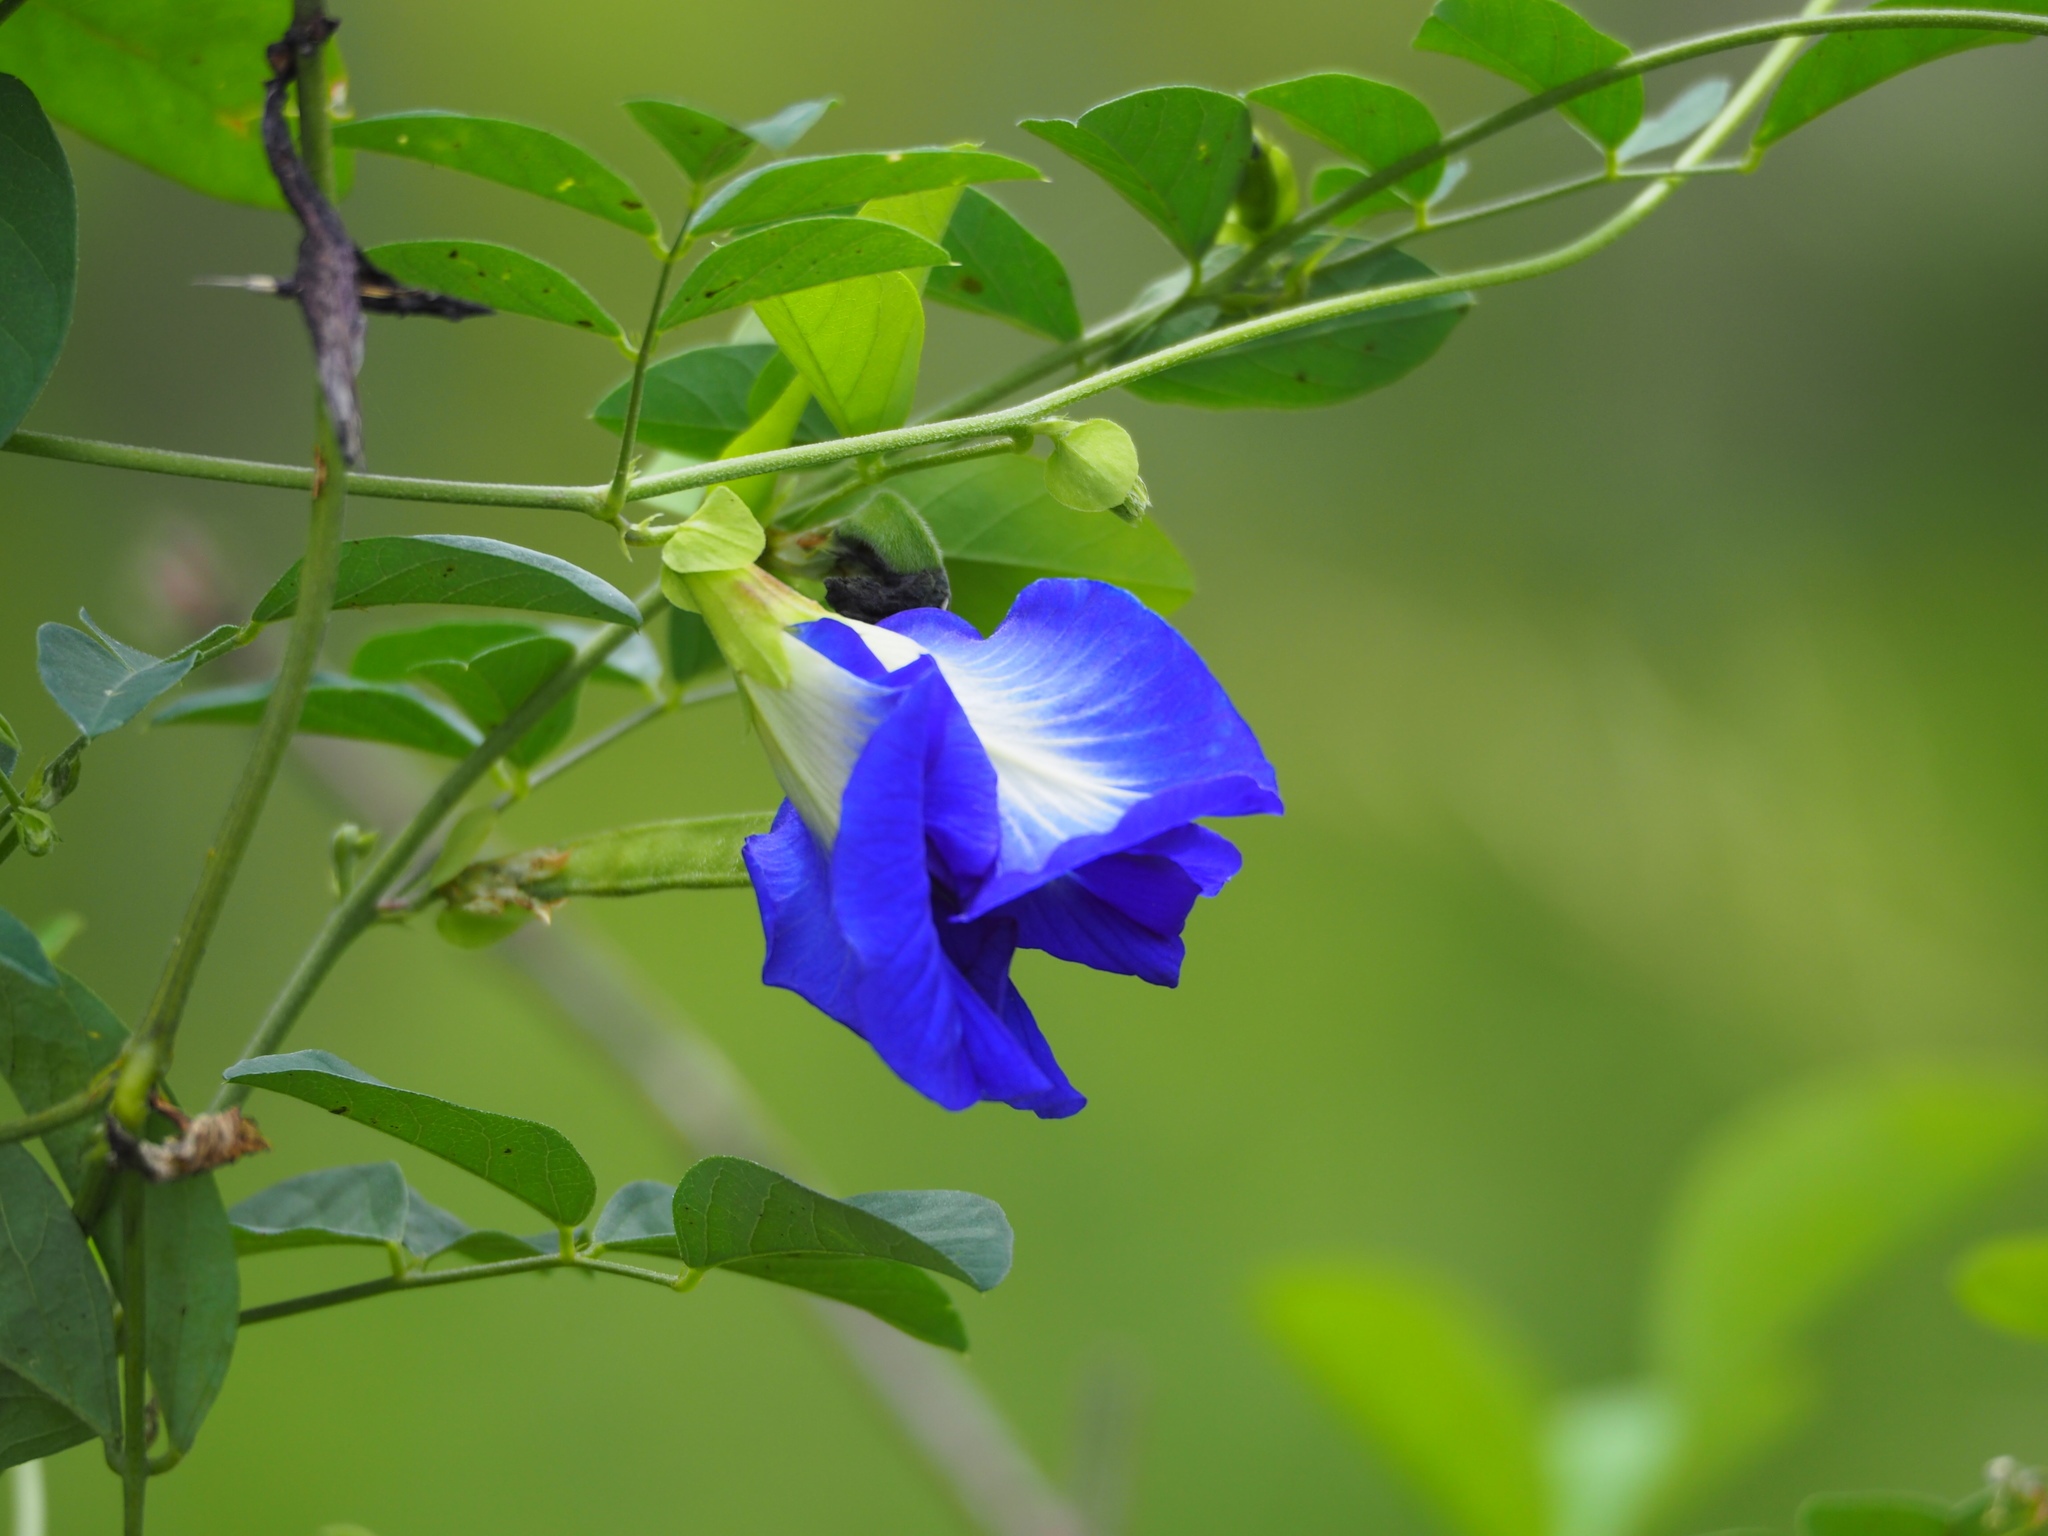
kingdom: Plantae
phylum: Tracheophyta
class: Magnoliopsida
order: Fabales
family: Fabaceae
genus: Clitoria
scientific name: Clitoria ternatea
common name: Asian pigeonwings
